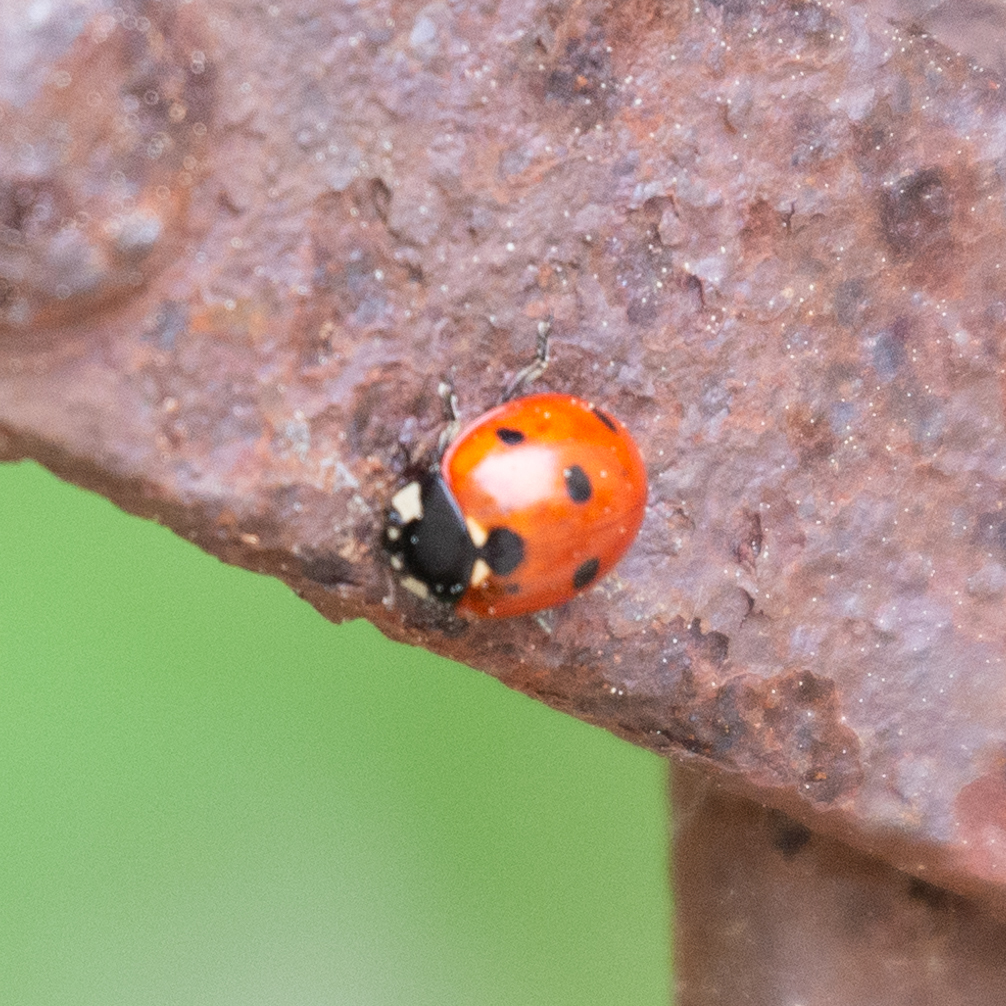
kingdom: Animalia
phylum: Arthropoda
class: Insecta
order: Coleoptera
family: Coccinellidae
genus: Coccinella
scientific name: Coccinella septempunctata
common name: Sevenspotted lady beetle
